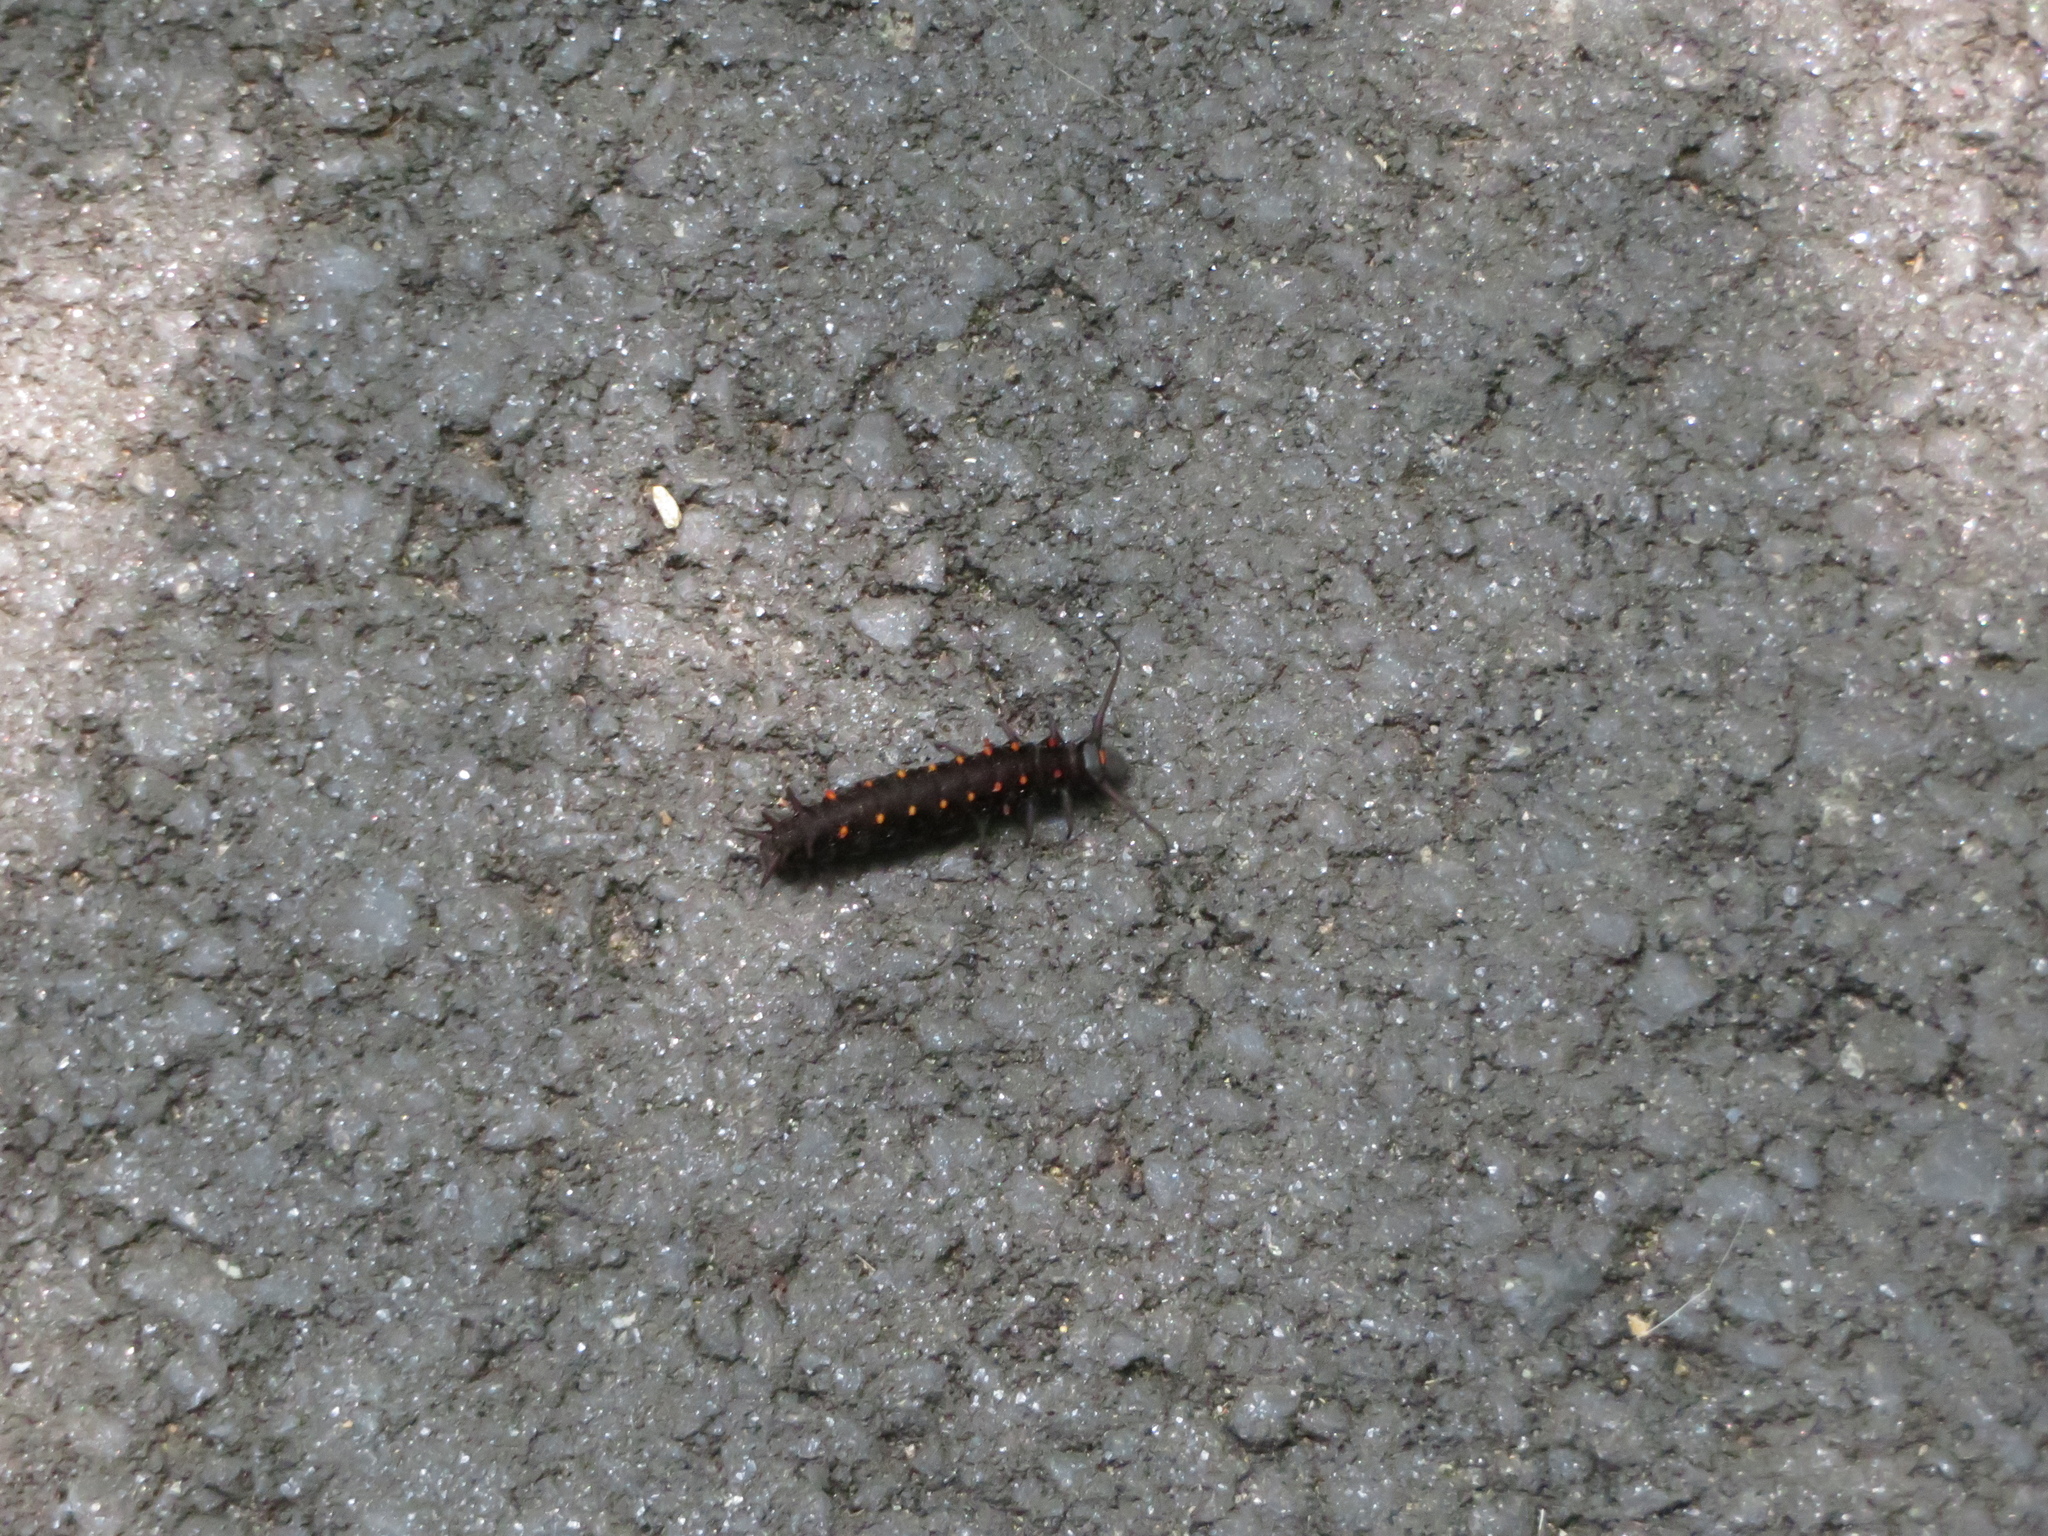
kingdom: Animalia
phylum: Arthropoda
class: Insecta
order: Lepidoptera
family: Papilionidae
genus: Battus
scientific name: Battus philenor
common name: Pipevine swallowtail
